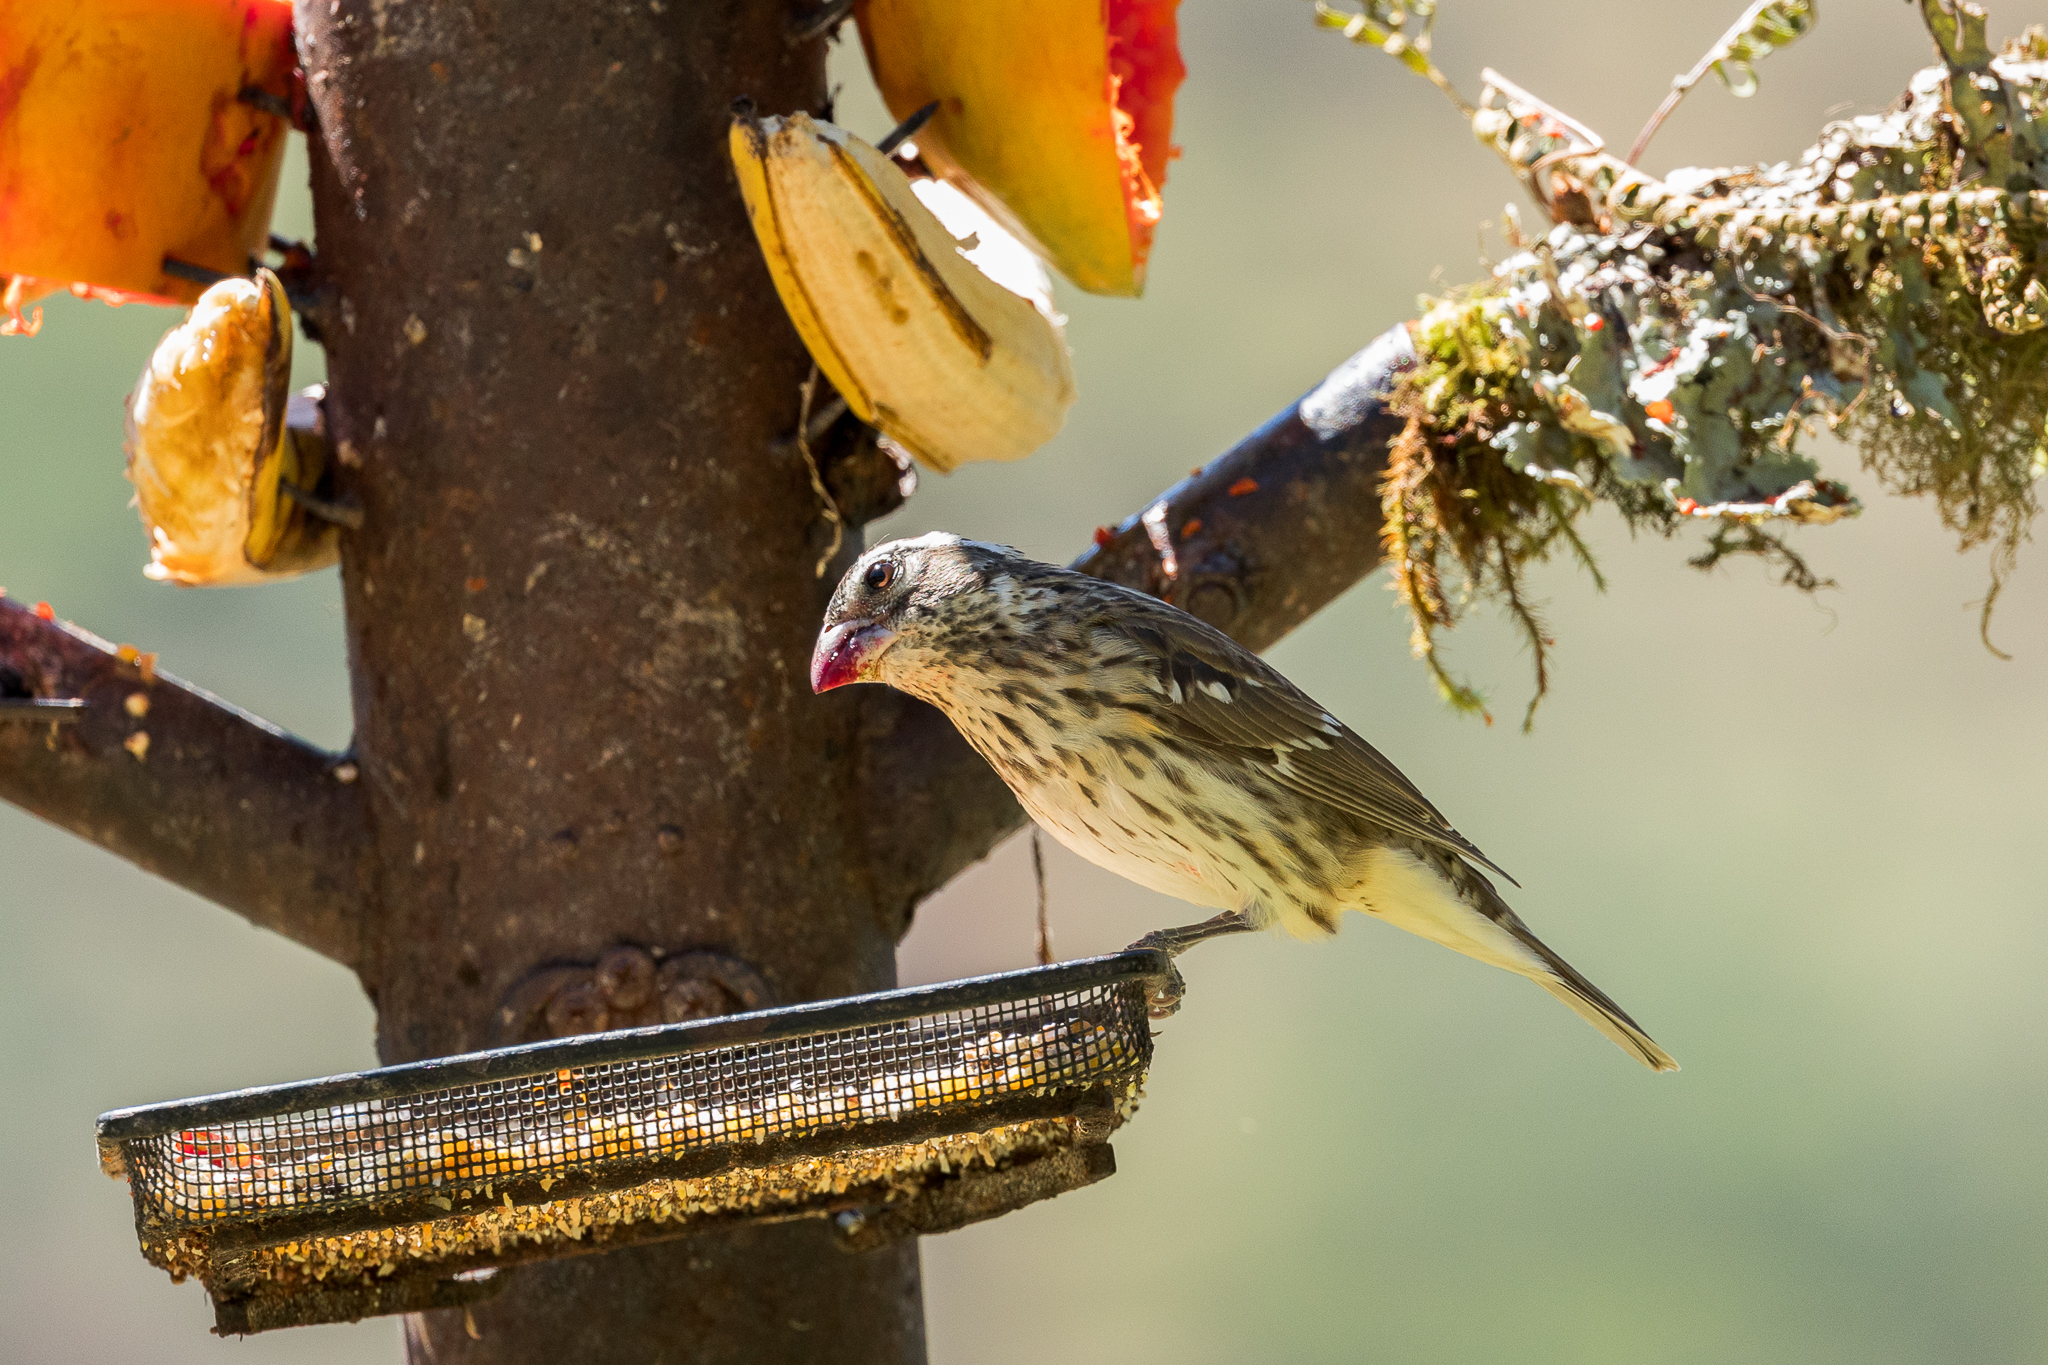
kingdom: Animalia
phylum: Chordata
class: Aves
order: Passeriformes
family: Cardinalidae
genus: Pheucticus
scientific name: Pheucticus ludovicianus
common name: Rose-breasted grosbeak
